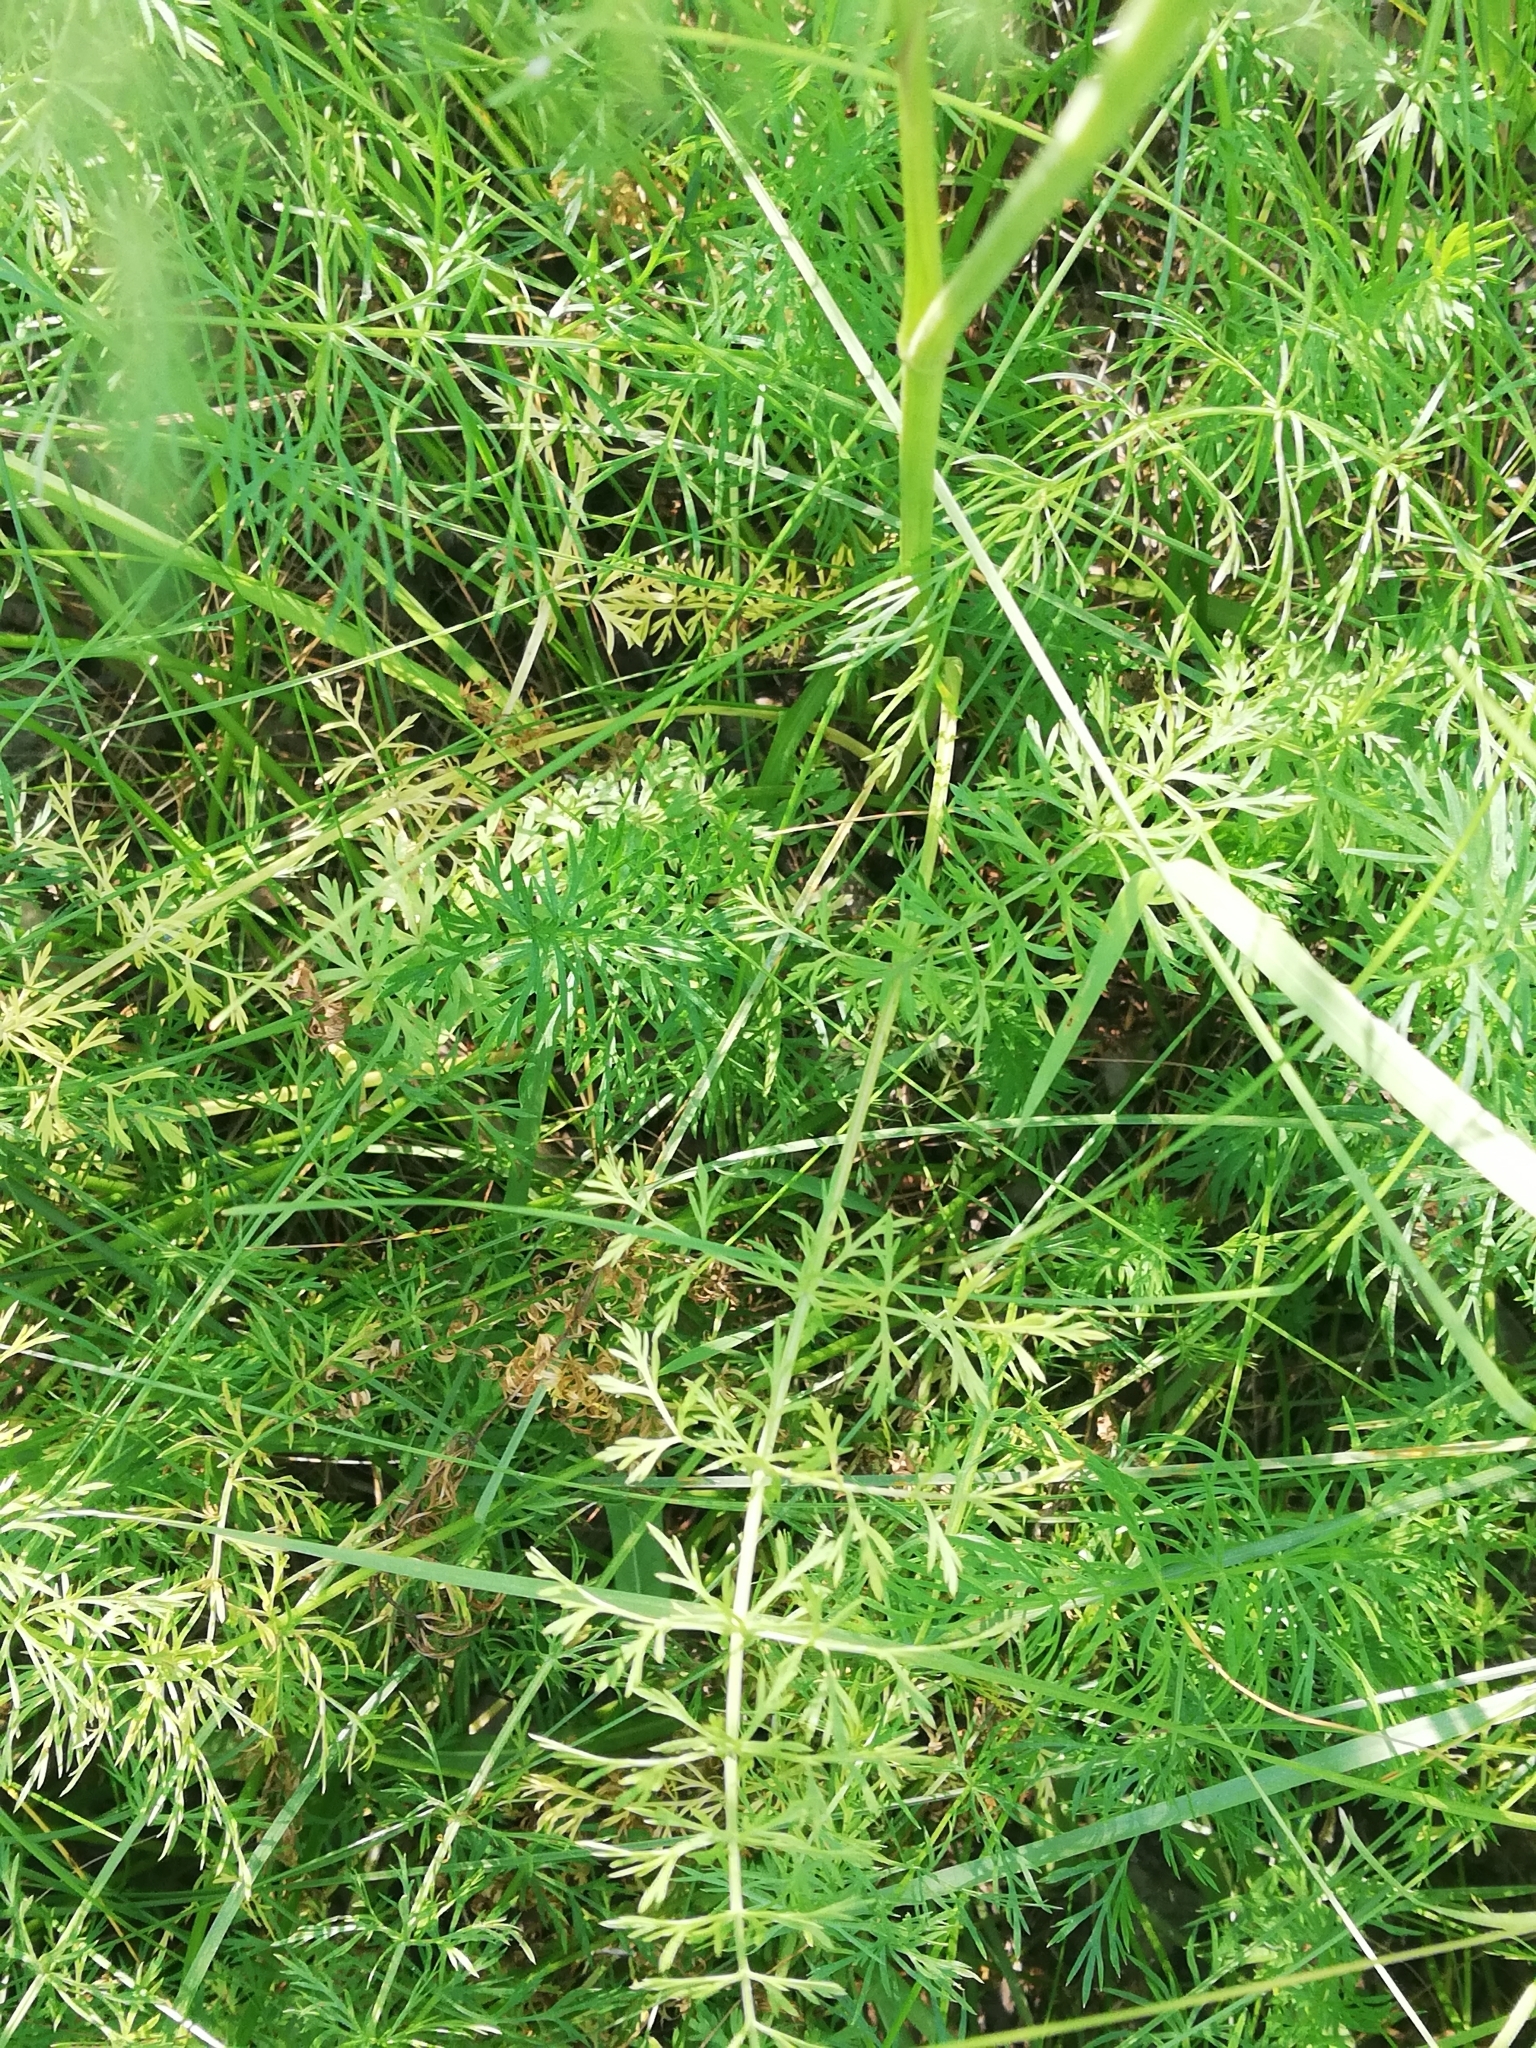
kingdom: Plantae
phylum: Tracheophyta
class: Magnoliopsida
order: Apiales
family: Apiaceae
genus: Carum
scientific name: Carum carvi
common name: Caraway
